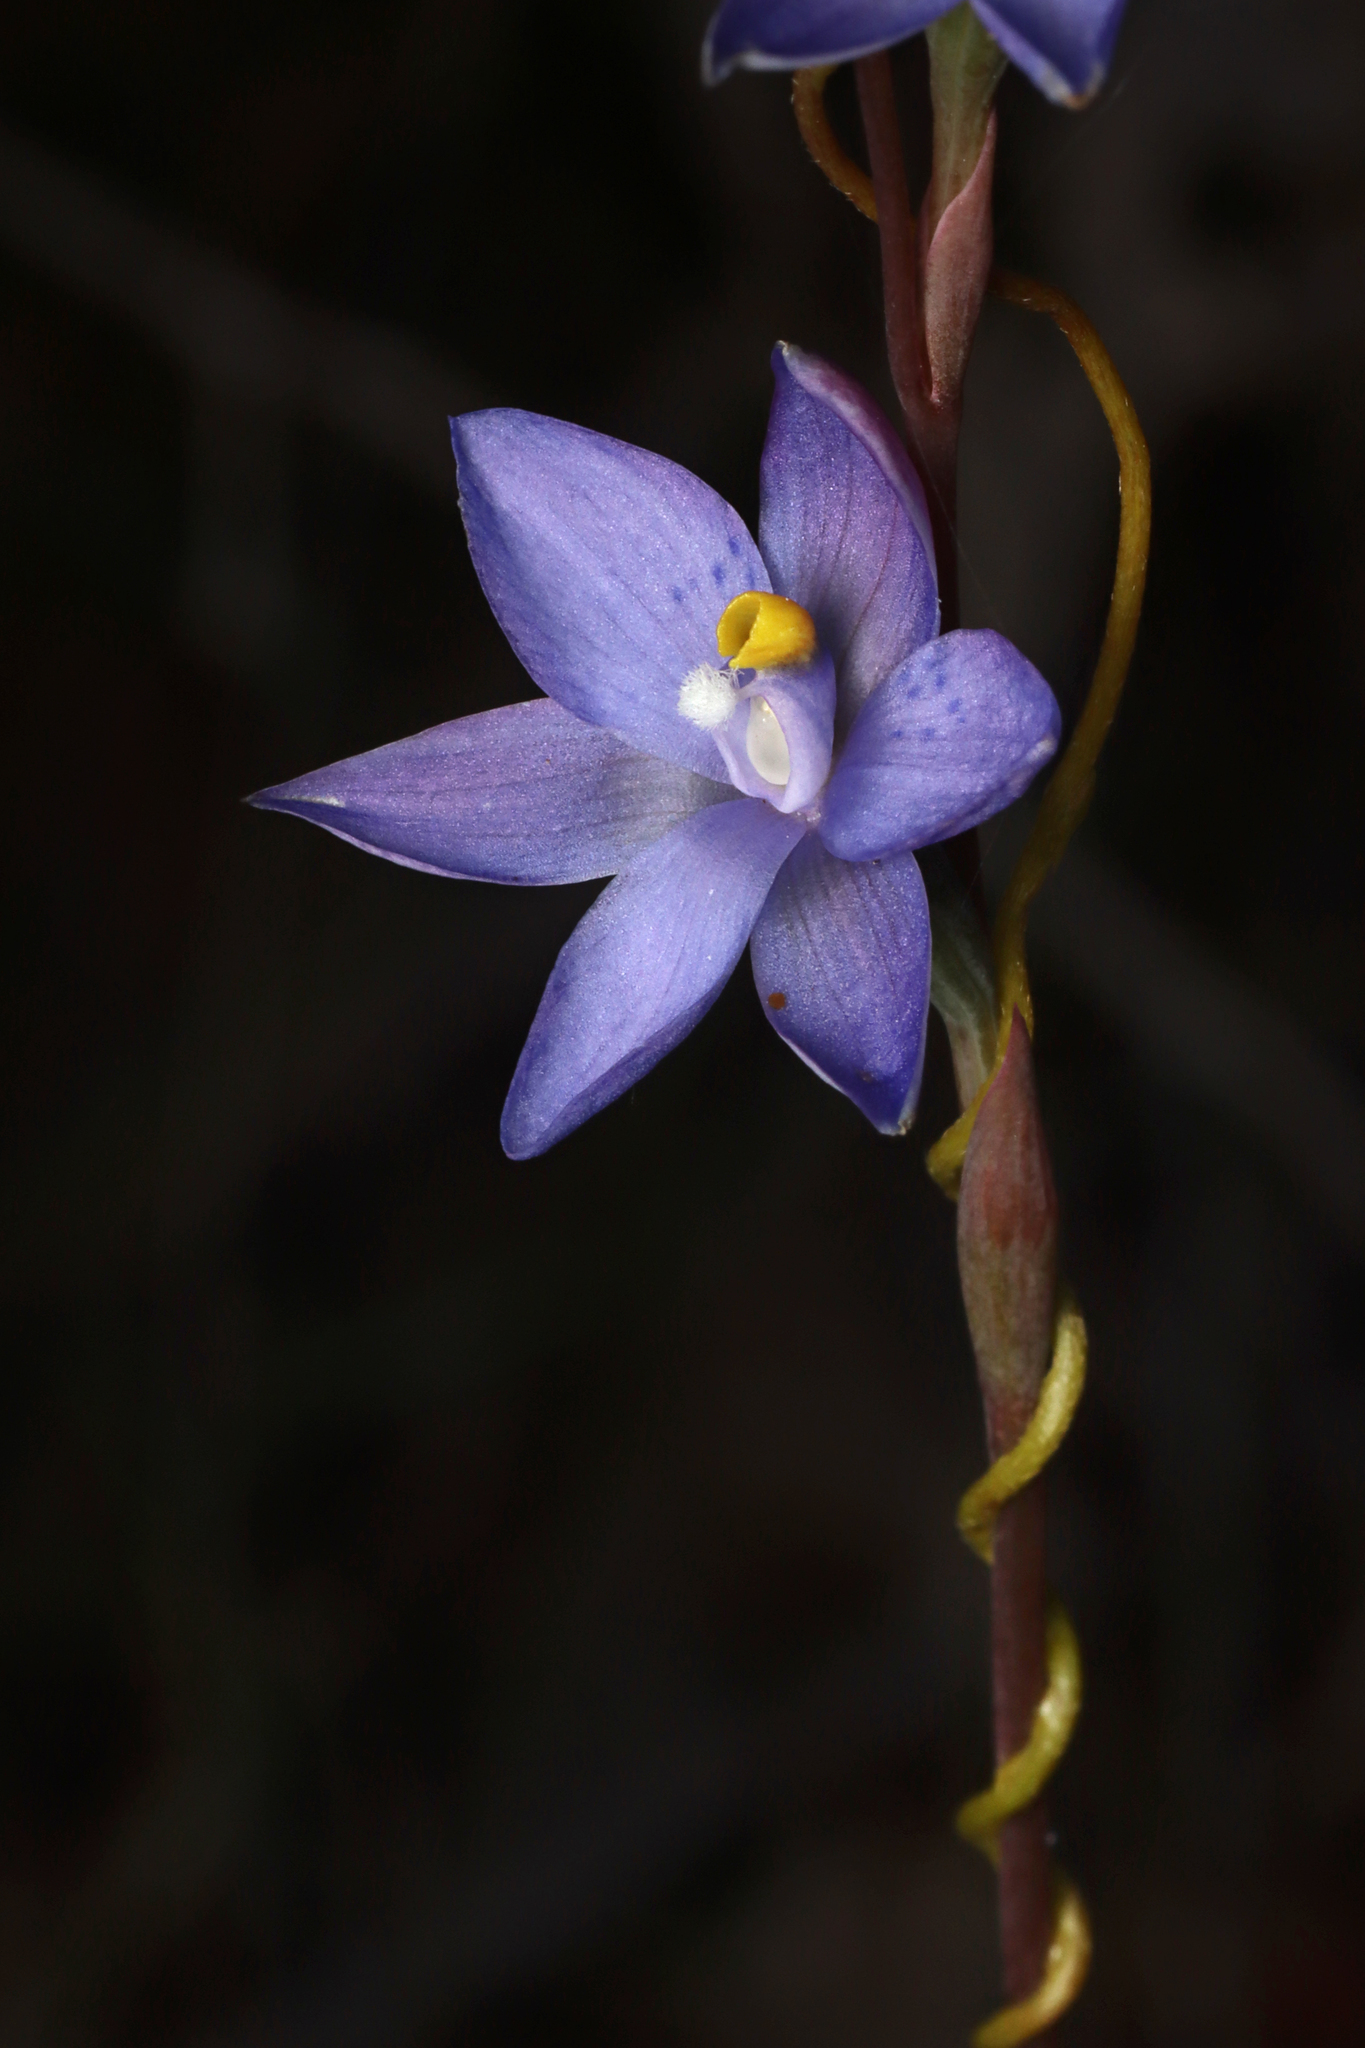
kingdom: Plantae
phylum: Tracheophyta
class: Liliopsida
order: Asparagales
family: Orchidaceae
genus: Thelymitra
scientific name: Thelymitra truncata
